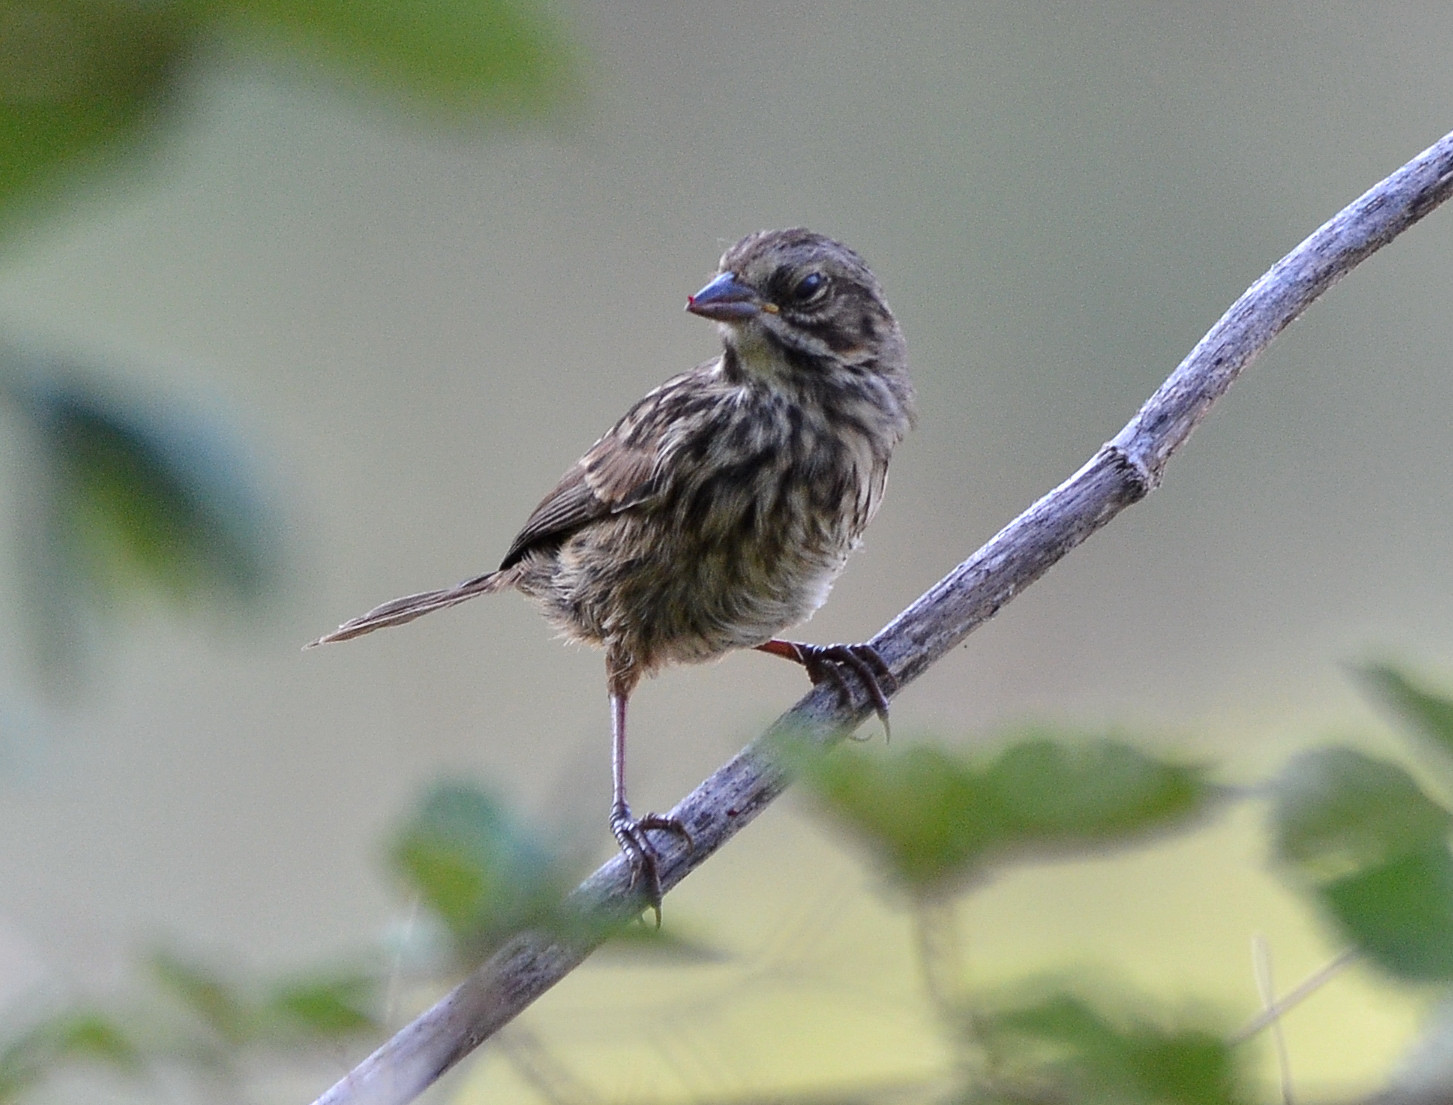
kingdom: Animalia
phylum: Chordata
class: Aves
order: Passeriformes
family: Passerellidae
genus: Melospiza
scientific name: Melospiza melodia
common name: Song sparrow
